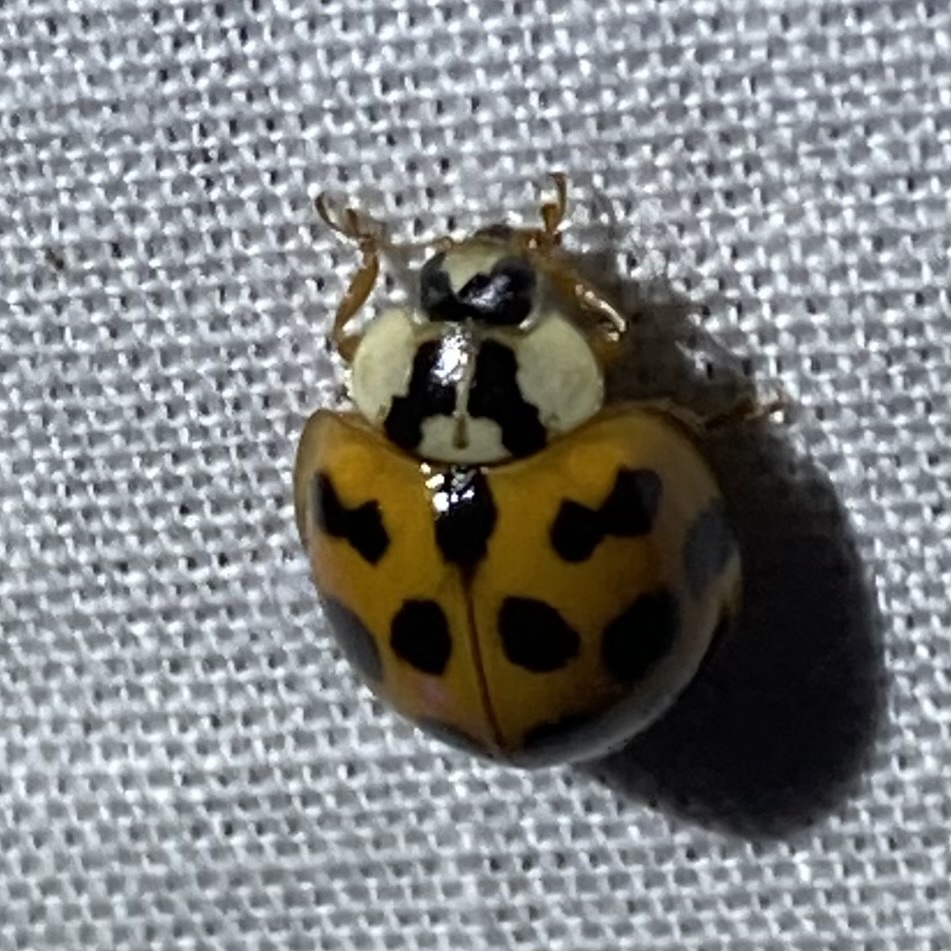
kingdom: Animalia
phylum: Arthropoda
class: Insecta
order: Coleoptera
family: Coccinellidae
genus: Harmonia
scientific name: Harmonia axyridis
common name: Harlequin ladybird
